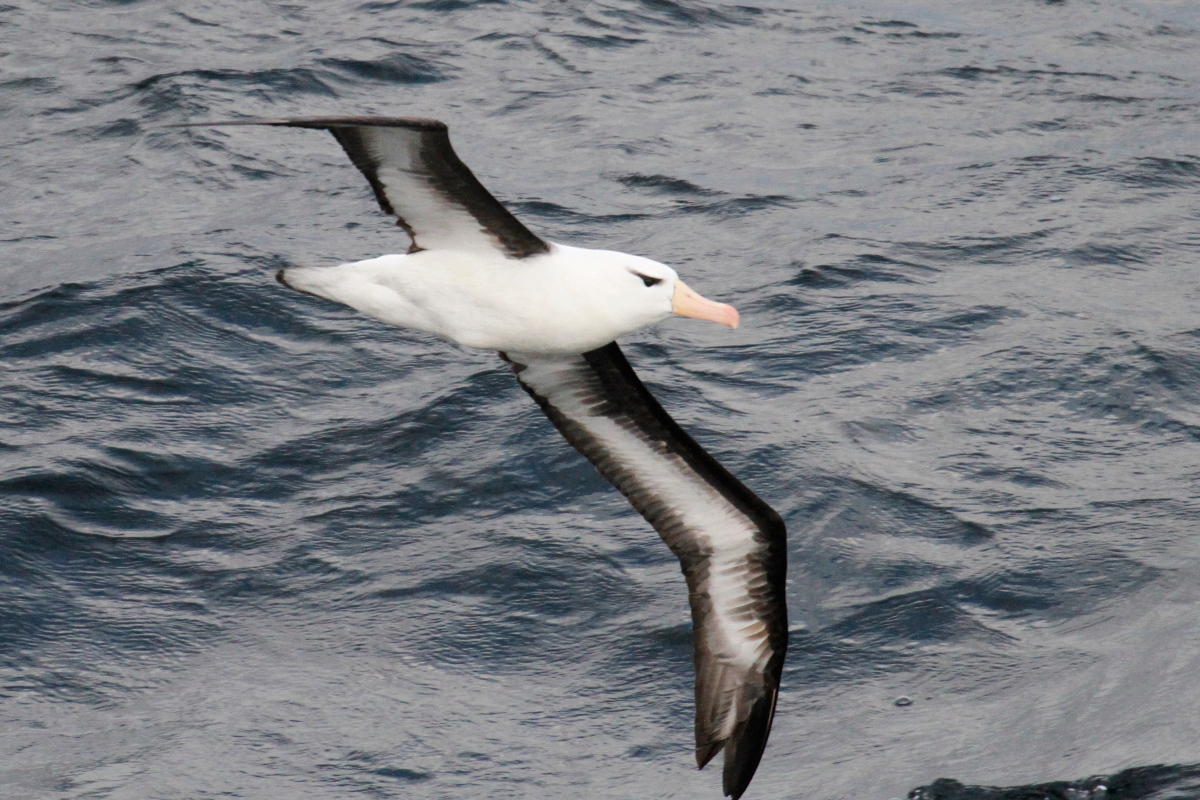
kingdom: Animalia
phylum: Chordata
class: Aves
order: Procellariiformes
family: Diomedeidae
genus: Thalassarche
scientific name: Thalassarche melanophris
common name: Black-browed albatross
